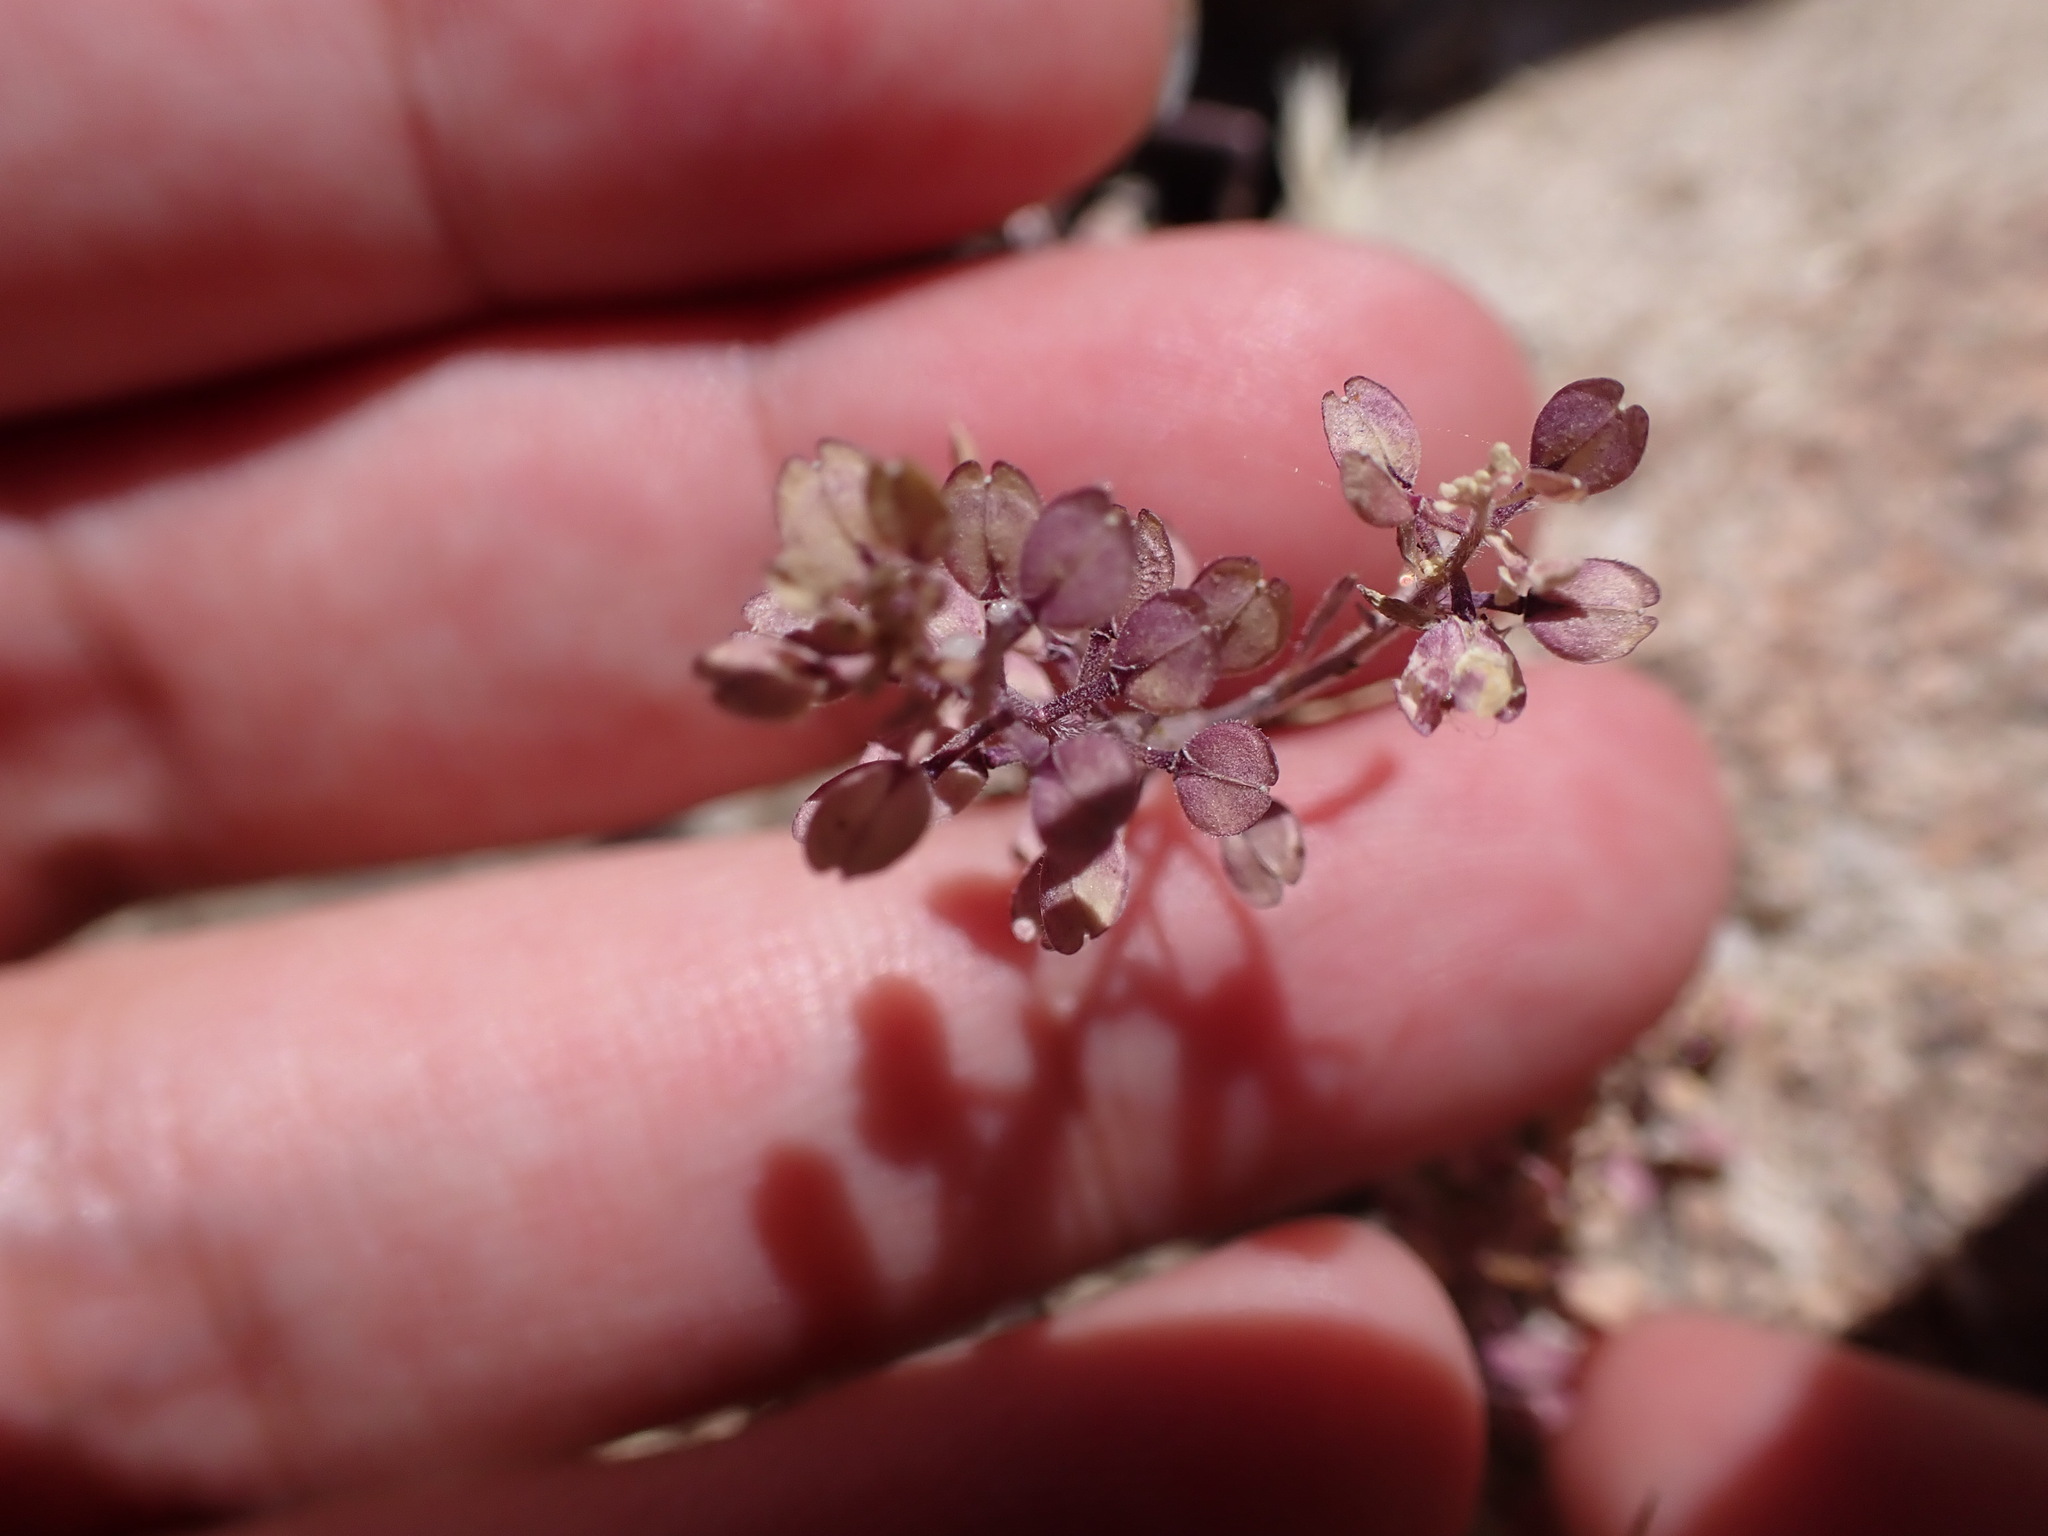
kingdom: Plantae
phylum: Tracheophyta
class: Magnoliopsida
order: Brassicales
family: Brassicaceae
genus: Lepidium
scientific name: Lepidium lasiocarpum
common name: Hairy-pod pepperwort
